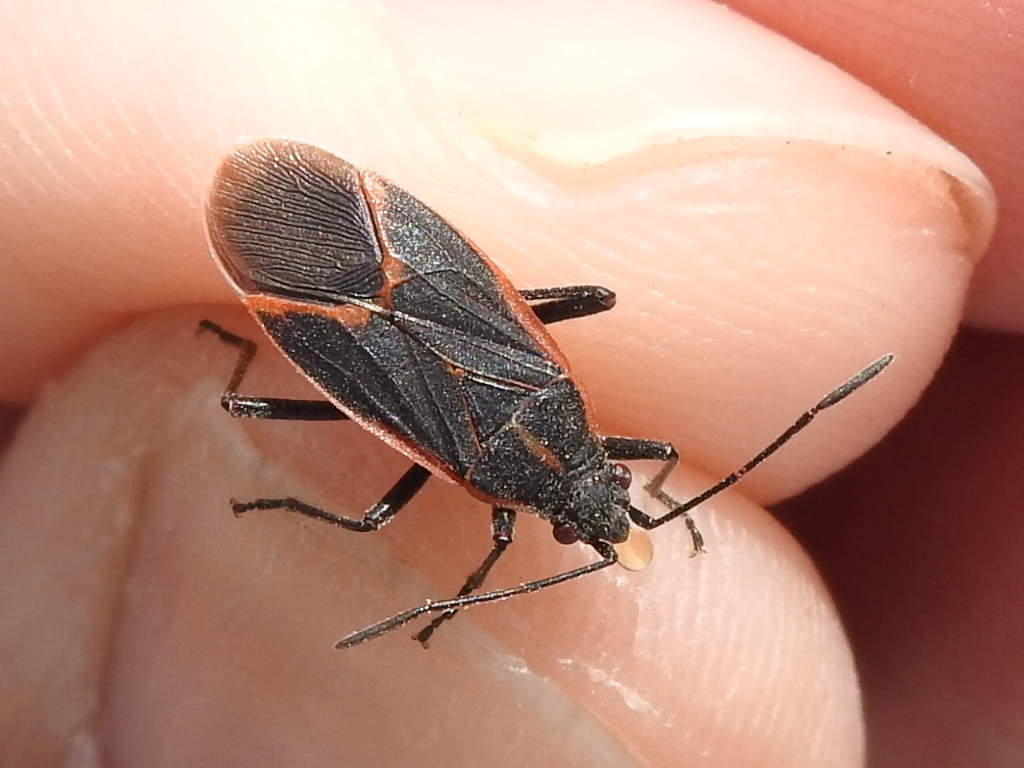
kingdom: Animalia
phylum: Arthropoda
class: Insecta
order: Hemiptera
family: Rhopalidae
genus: Boisea
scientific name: Boisea trivittata
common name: Boxelder bug
